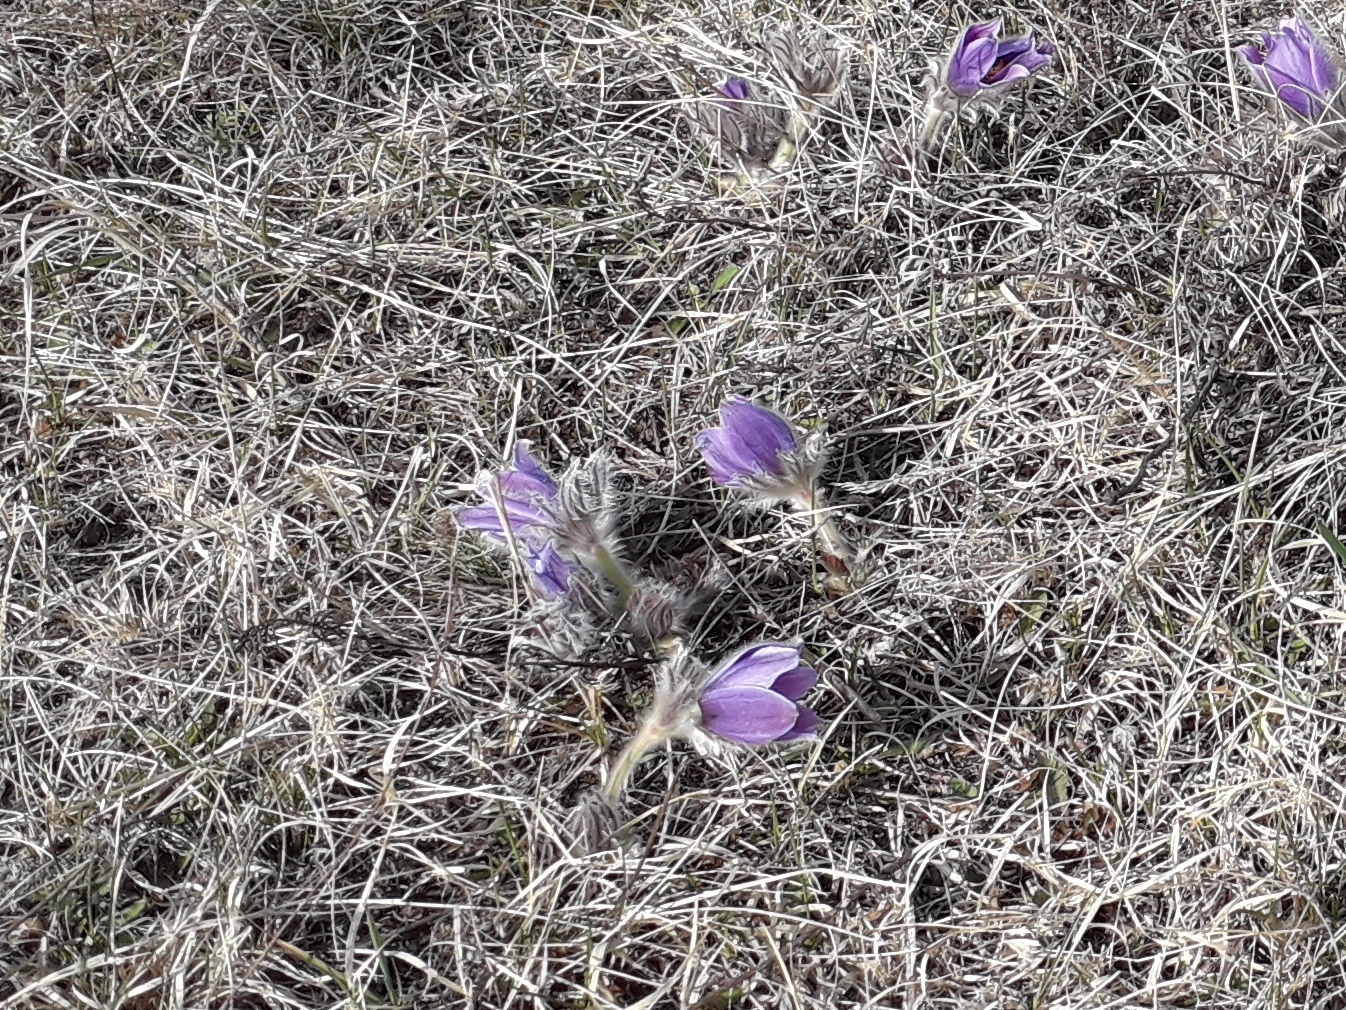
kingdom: Plantae
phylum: Tracheophyta
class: Magnoliopsida
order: Ranunculales
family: Ranunculaceae
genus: Pulsatilla
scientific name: Pulsatilla turczaninovii
